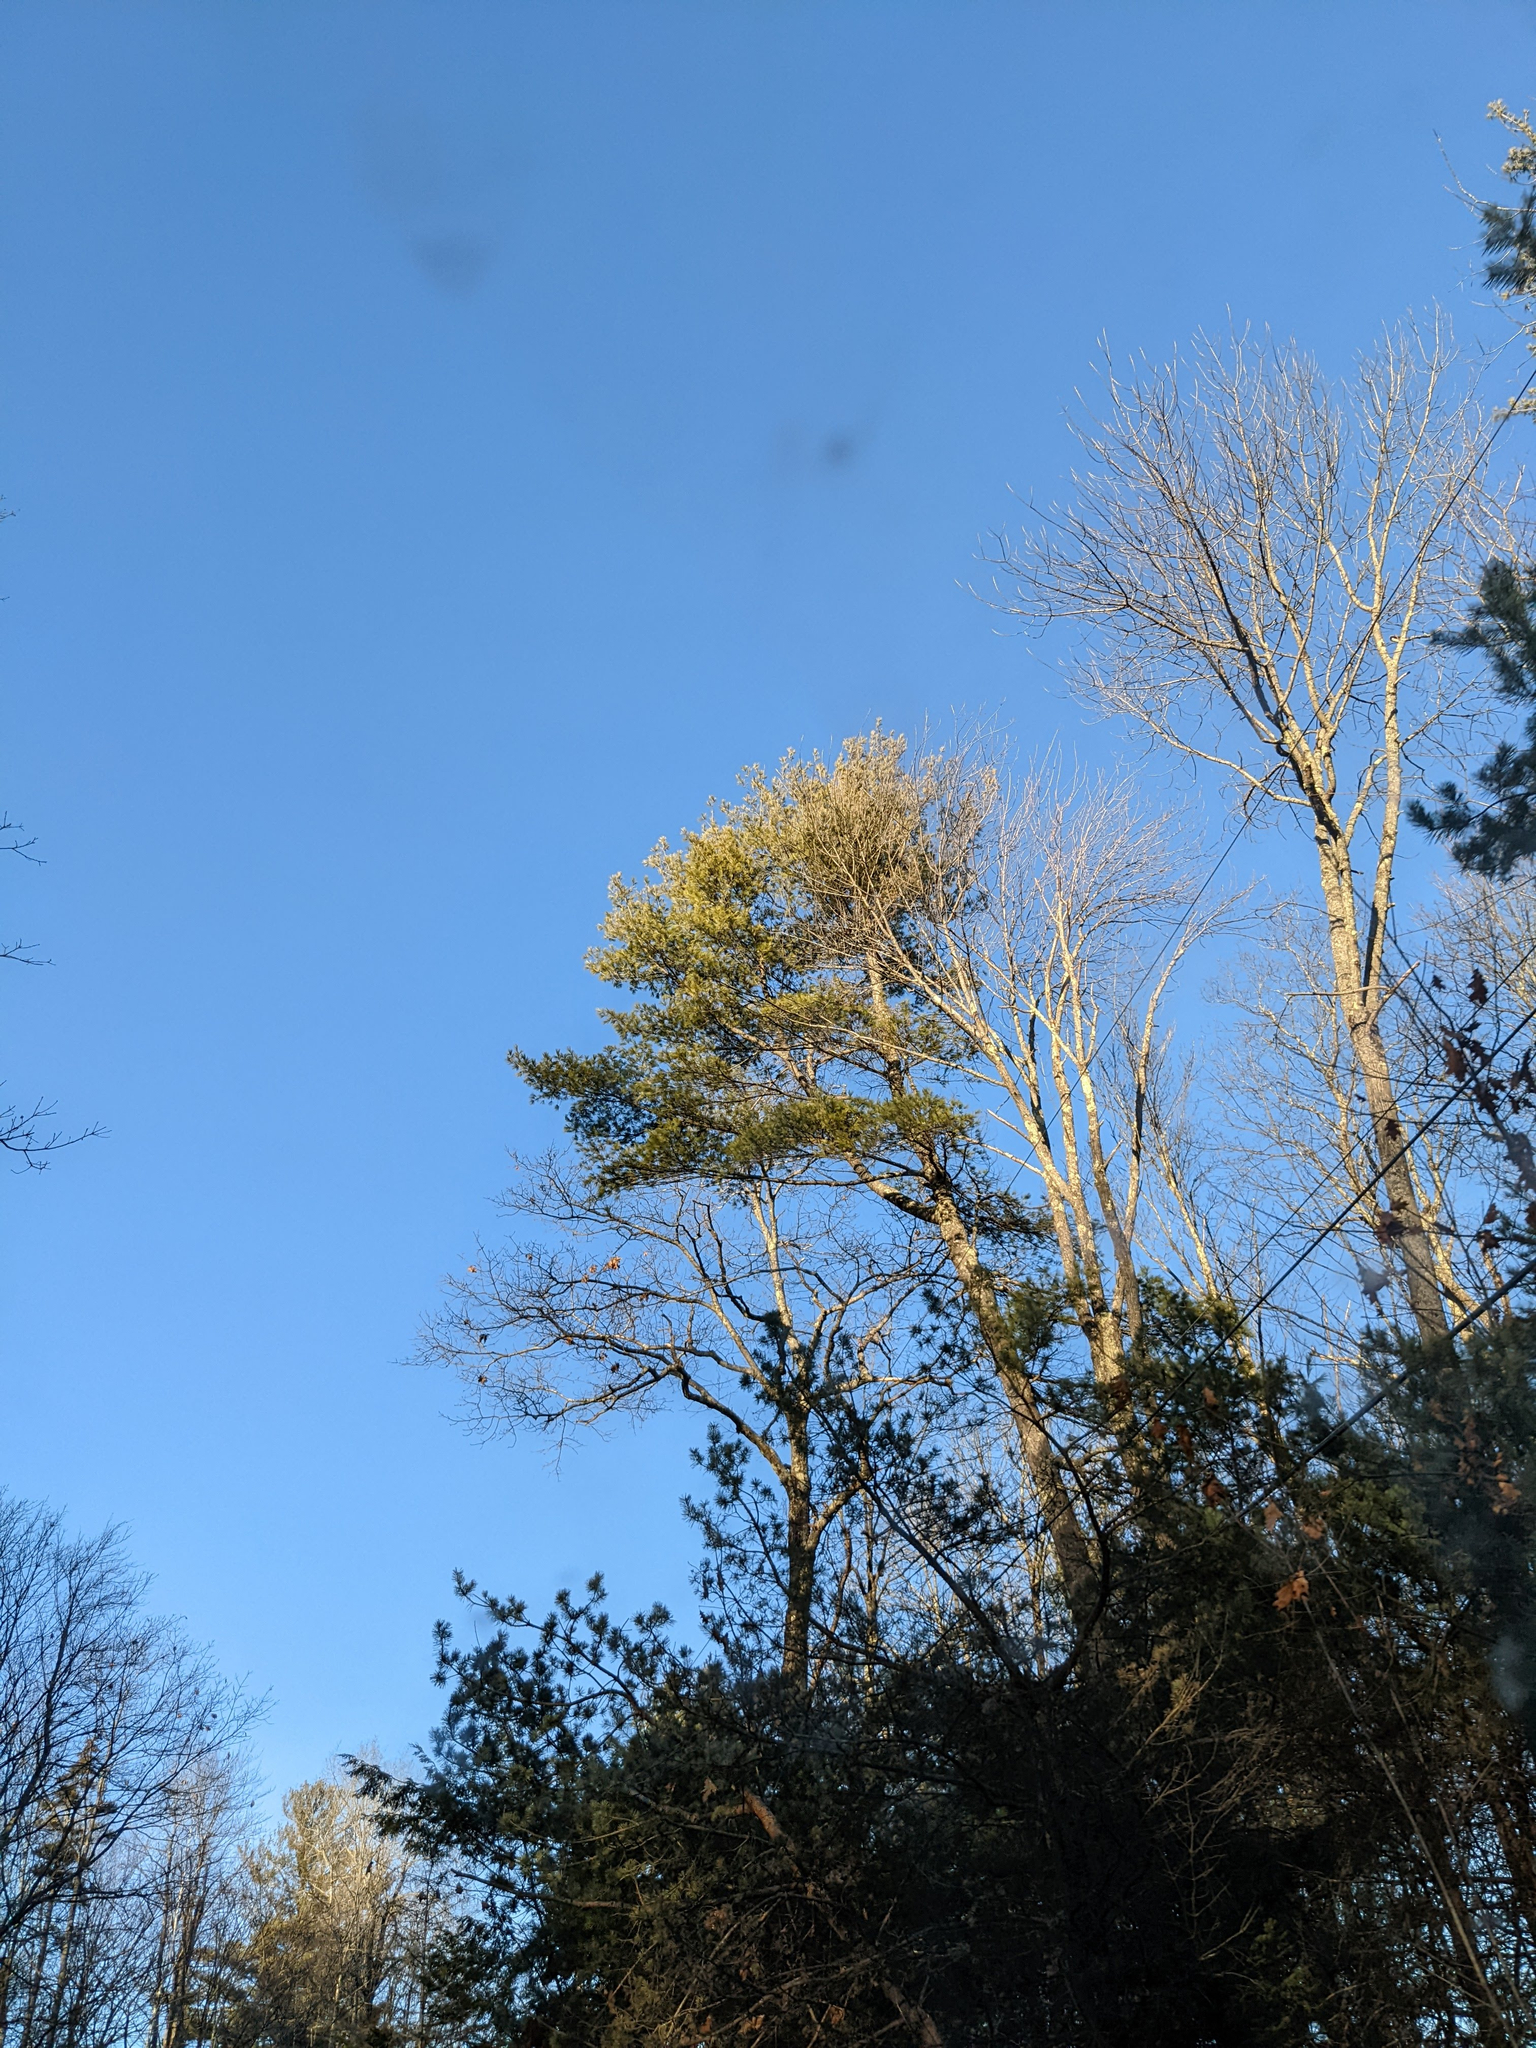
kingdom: Plantae
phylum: Tracheophyta
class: Pinopsida
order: Pinales
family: Pinaceae
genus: Pinus
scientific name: Pinus strobus
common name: Weymouth pine
